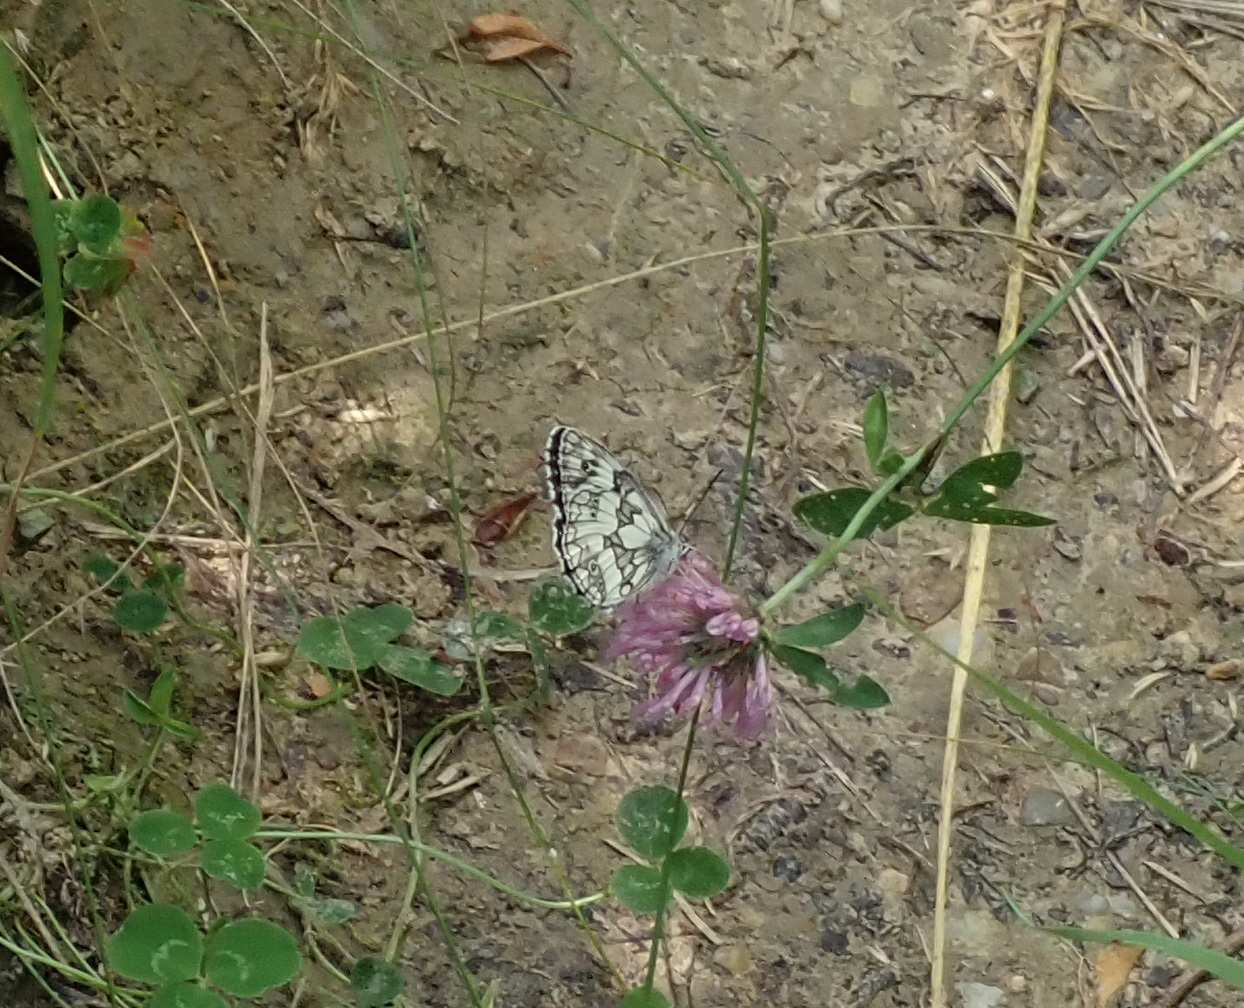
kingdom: Animalia
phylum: Arthropoda
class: Insecta
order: Lepidoptera
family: Nymphalidae
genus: Melanargia
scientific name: Melanargia galathea
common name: Marbled white
